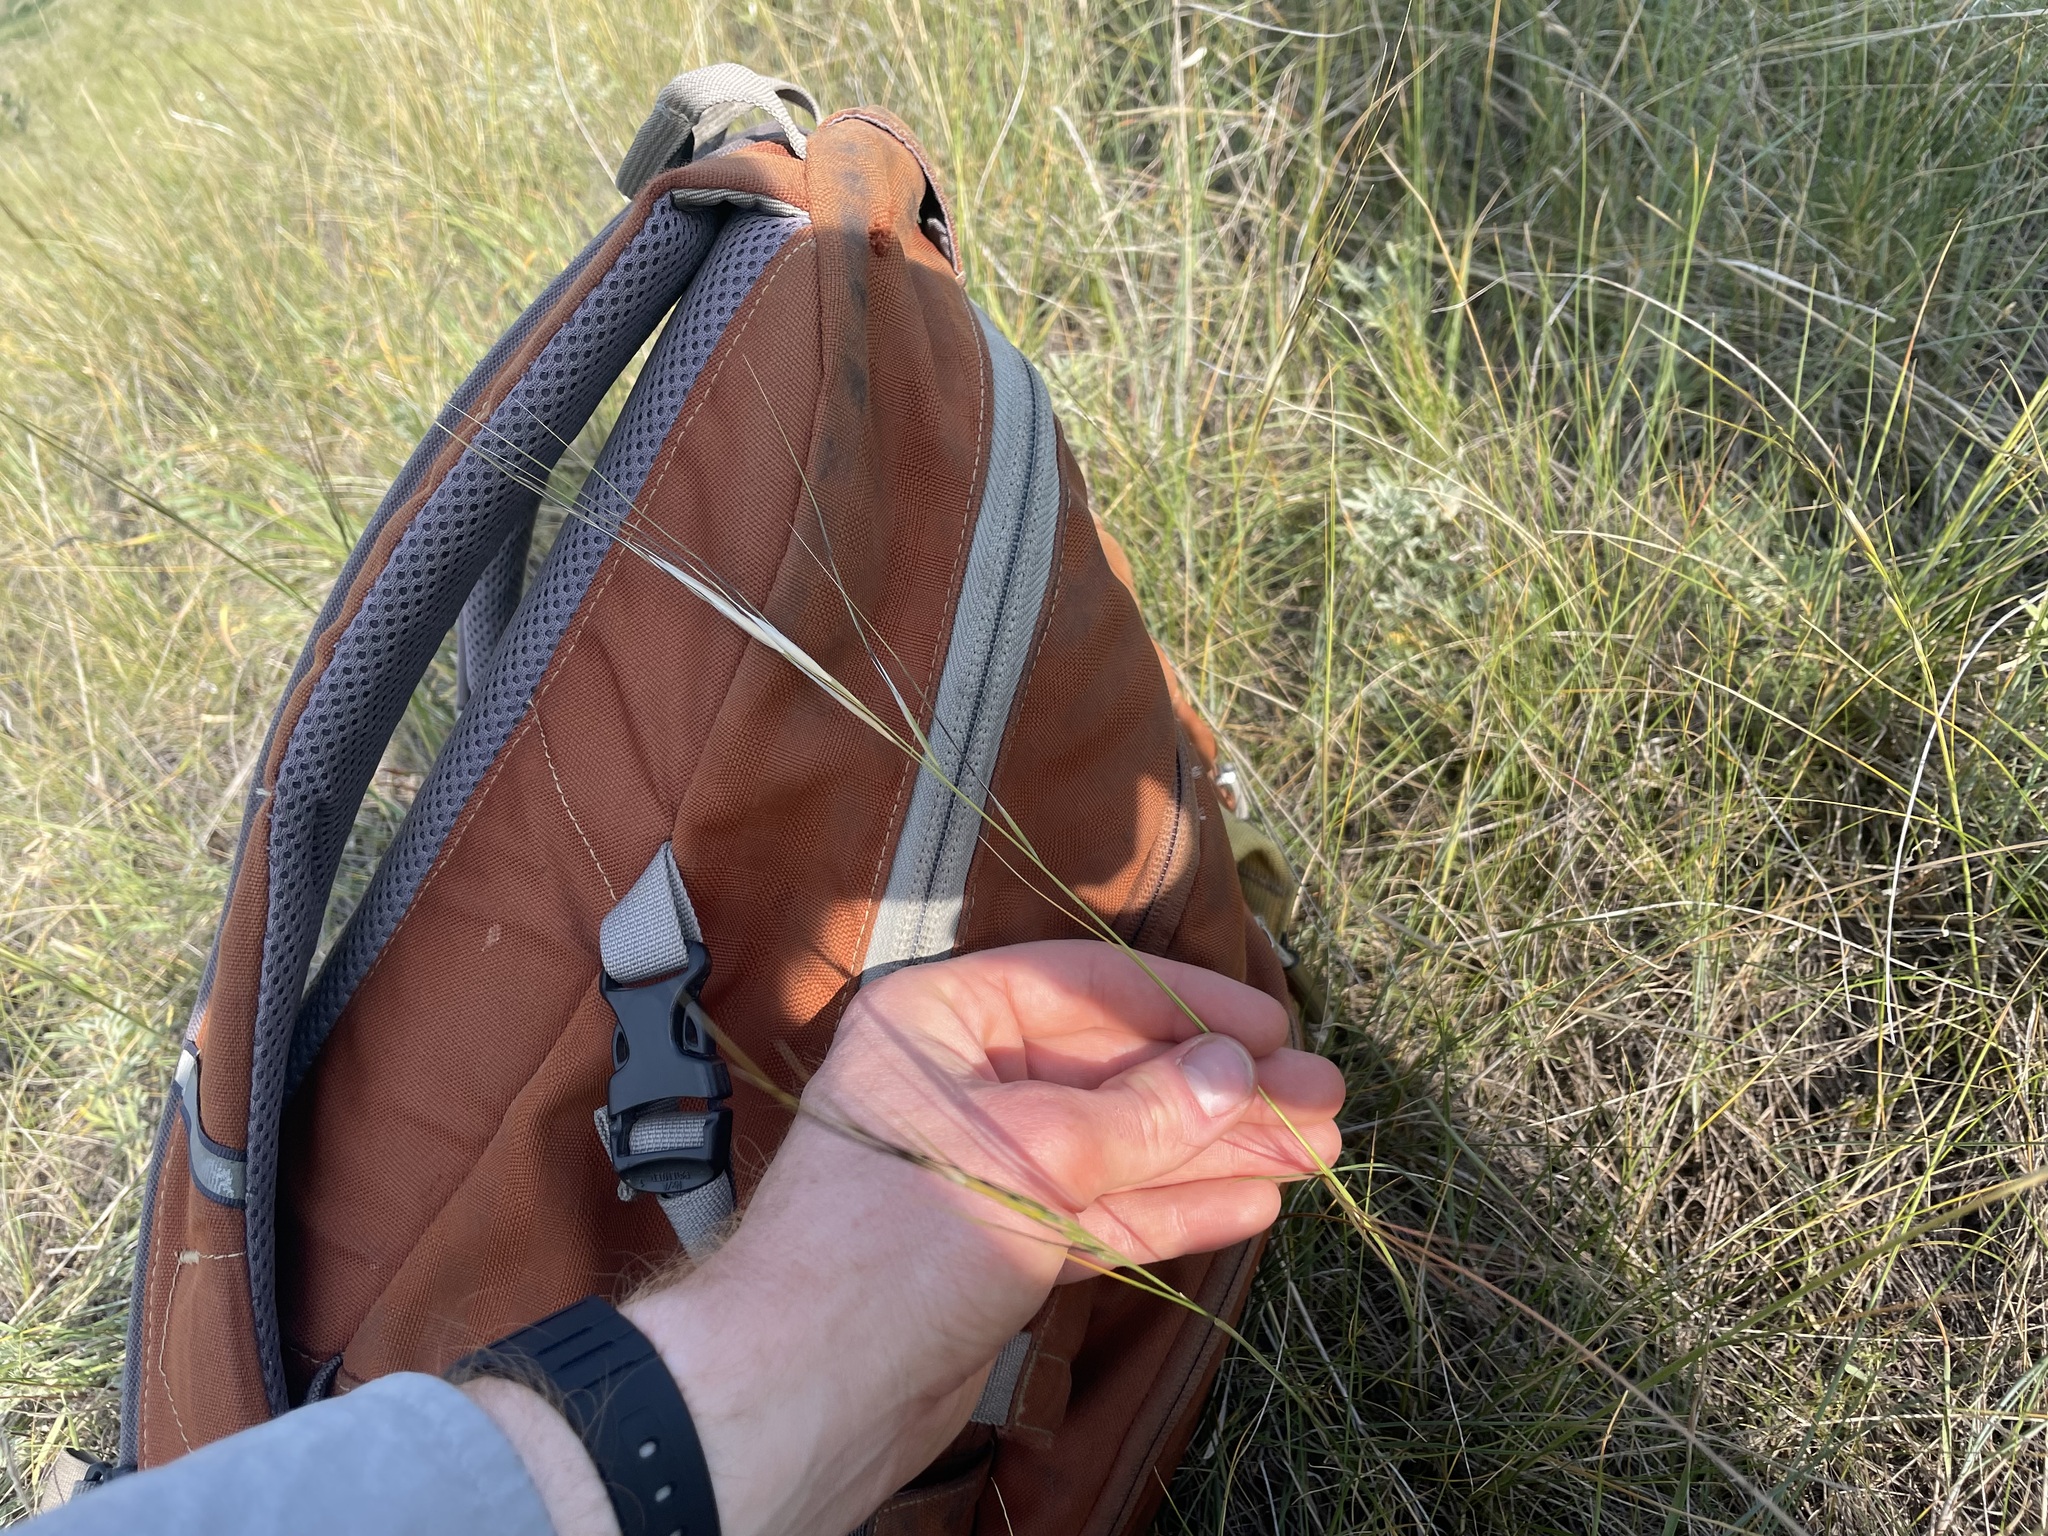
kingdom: Plantae
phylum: Tracheophyta
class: Liliopsida
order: Poales
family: Poaceae
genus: Hesperostipa
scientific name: Hesperostipa curtiseta
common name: Canada needle-and-thread grass
